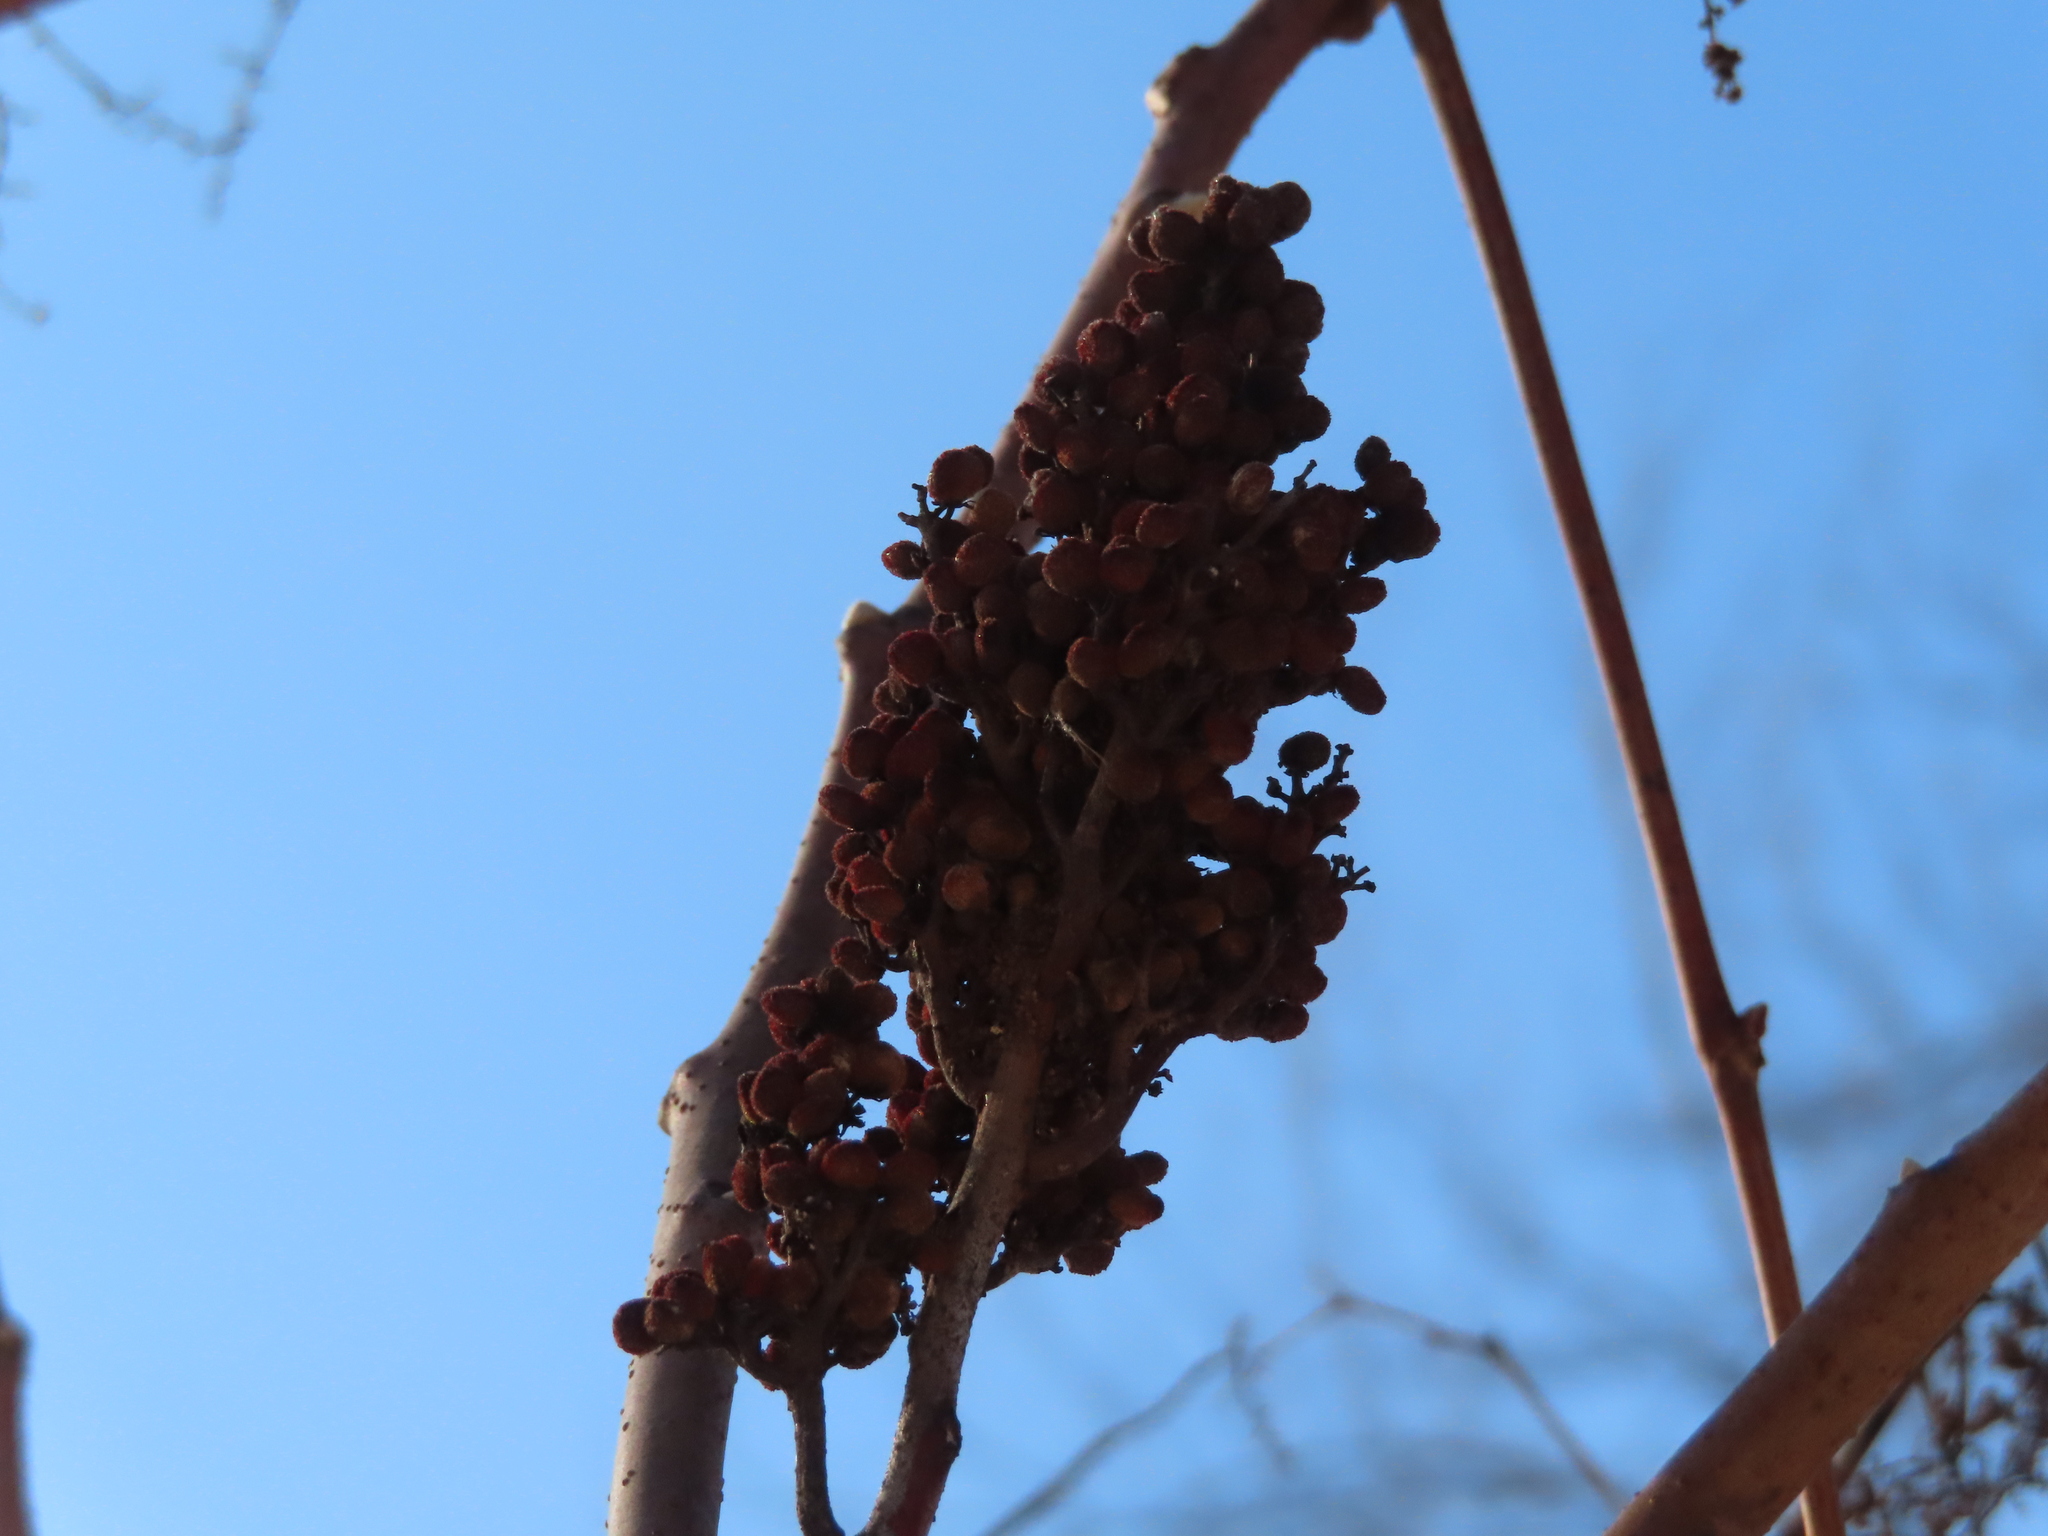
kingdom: Plantae
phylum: Tracheophyta
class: Magnoliopsida
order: Sapindales
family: Anacardiaceae
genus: Rhus
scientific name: Rhus glabra
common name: Scarlet sumac
